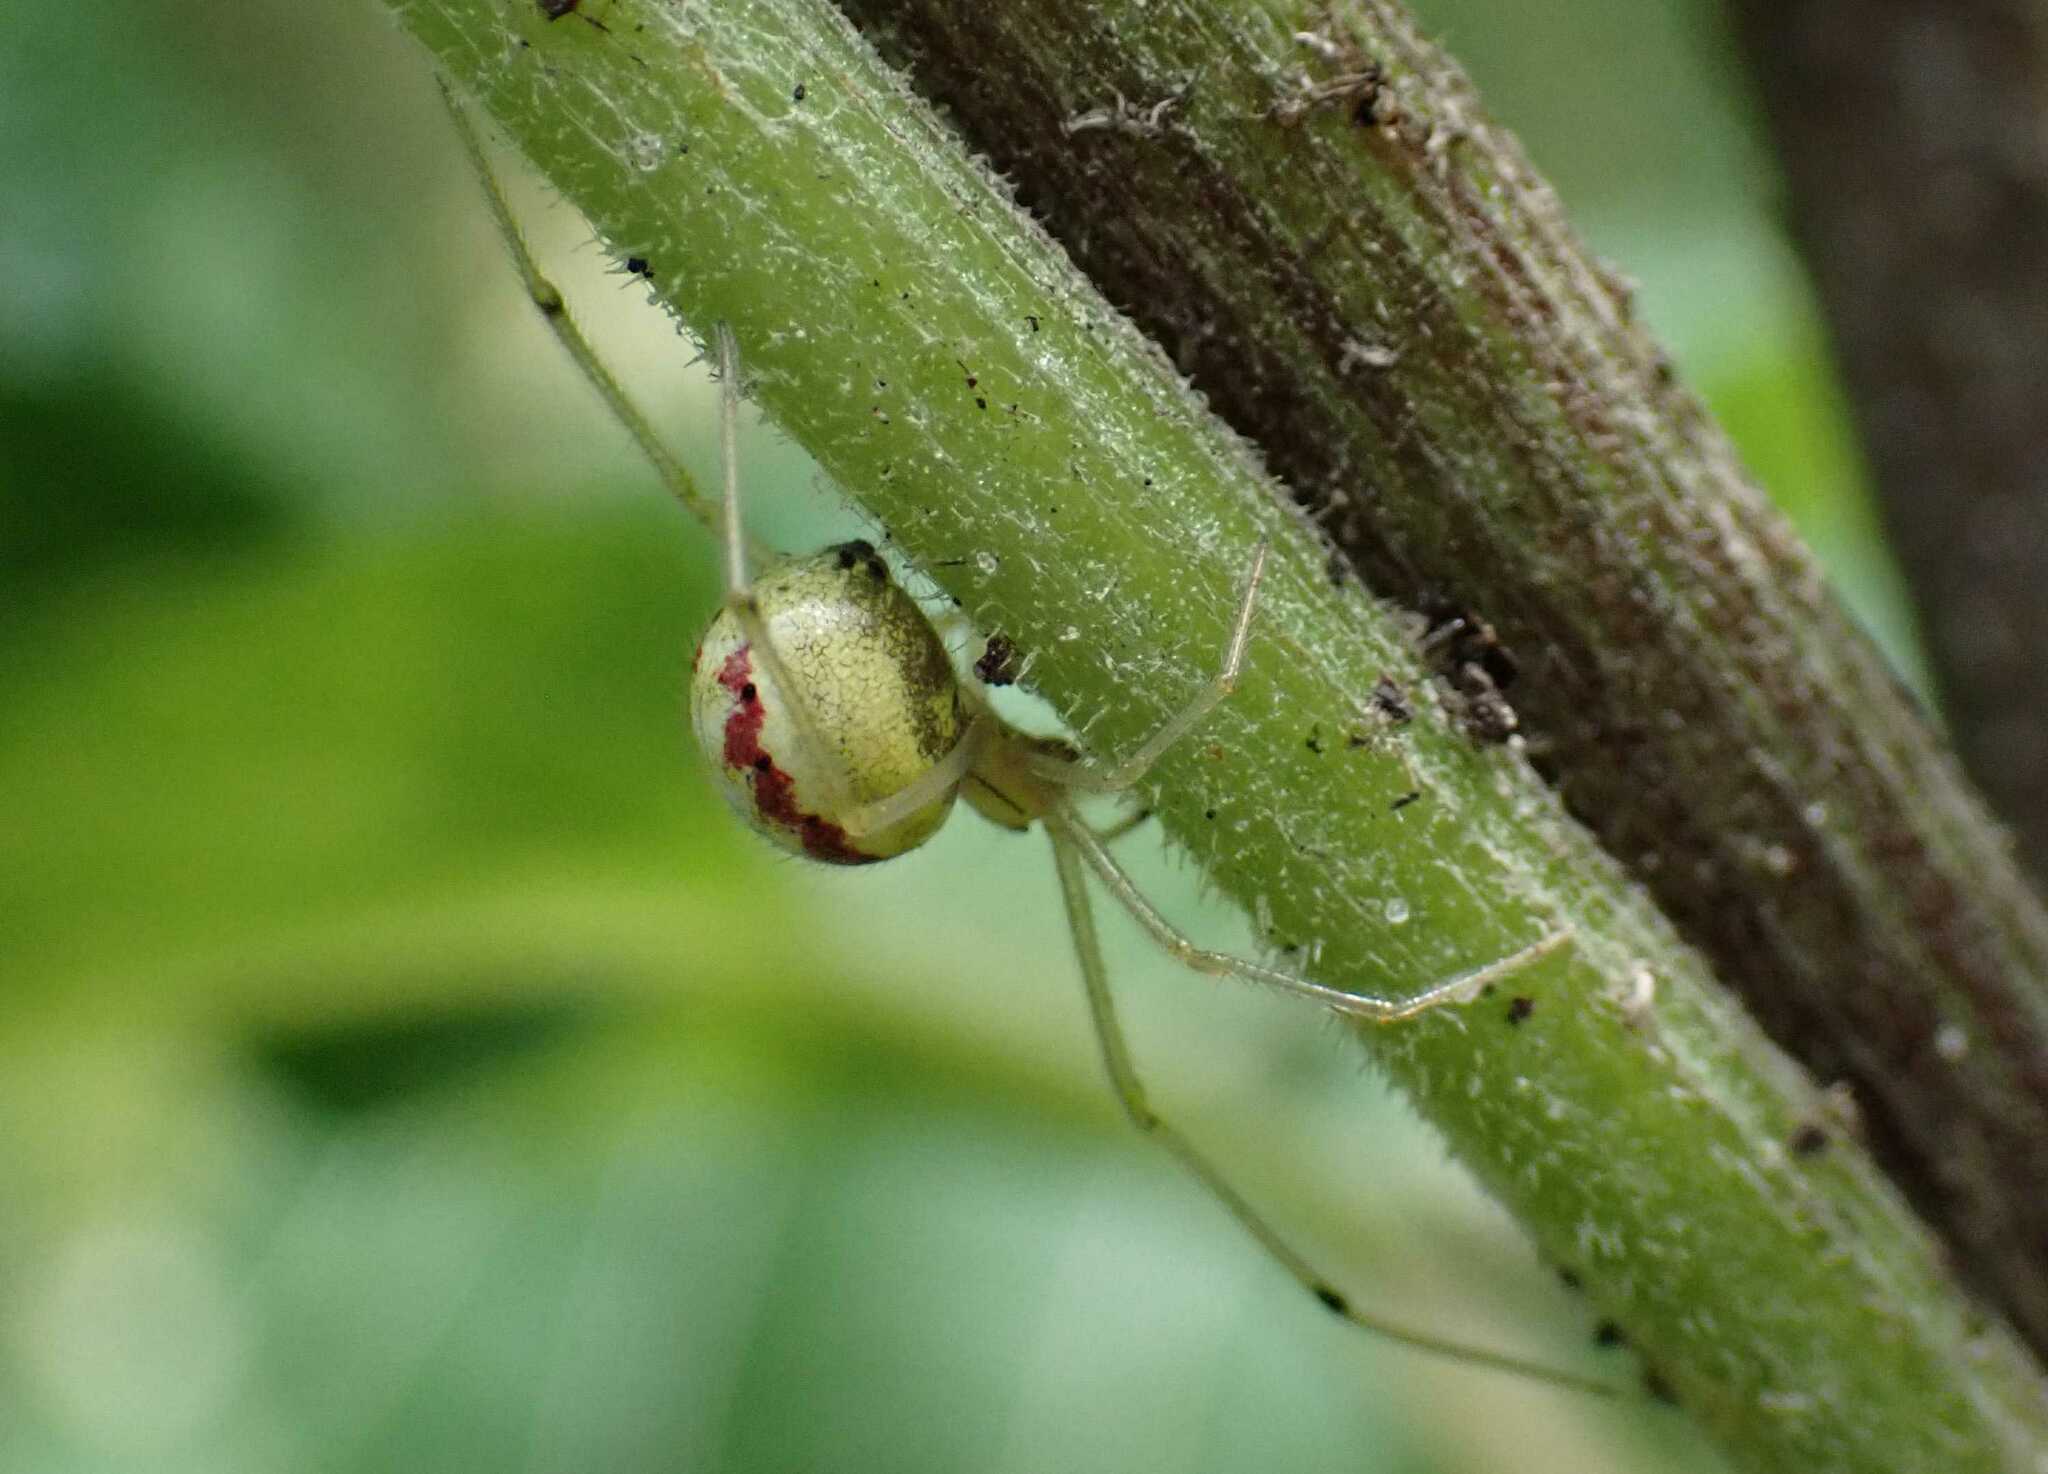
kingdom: Animalia
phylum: Arthropoda
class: Arachnida
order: Araneae
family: Theridiidae
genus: Enoplognatha
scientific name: Enoplognatha
